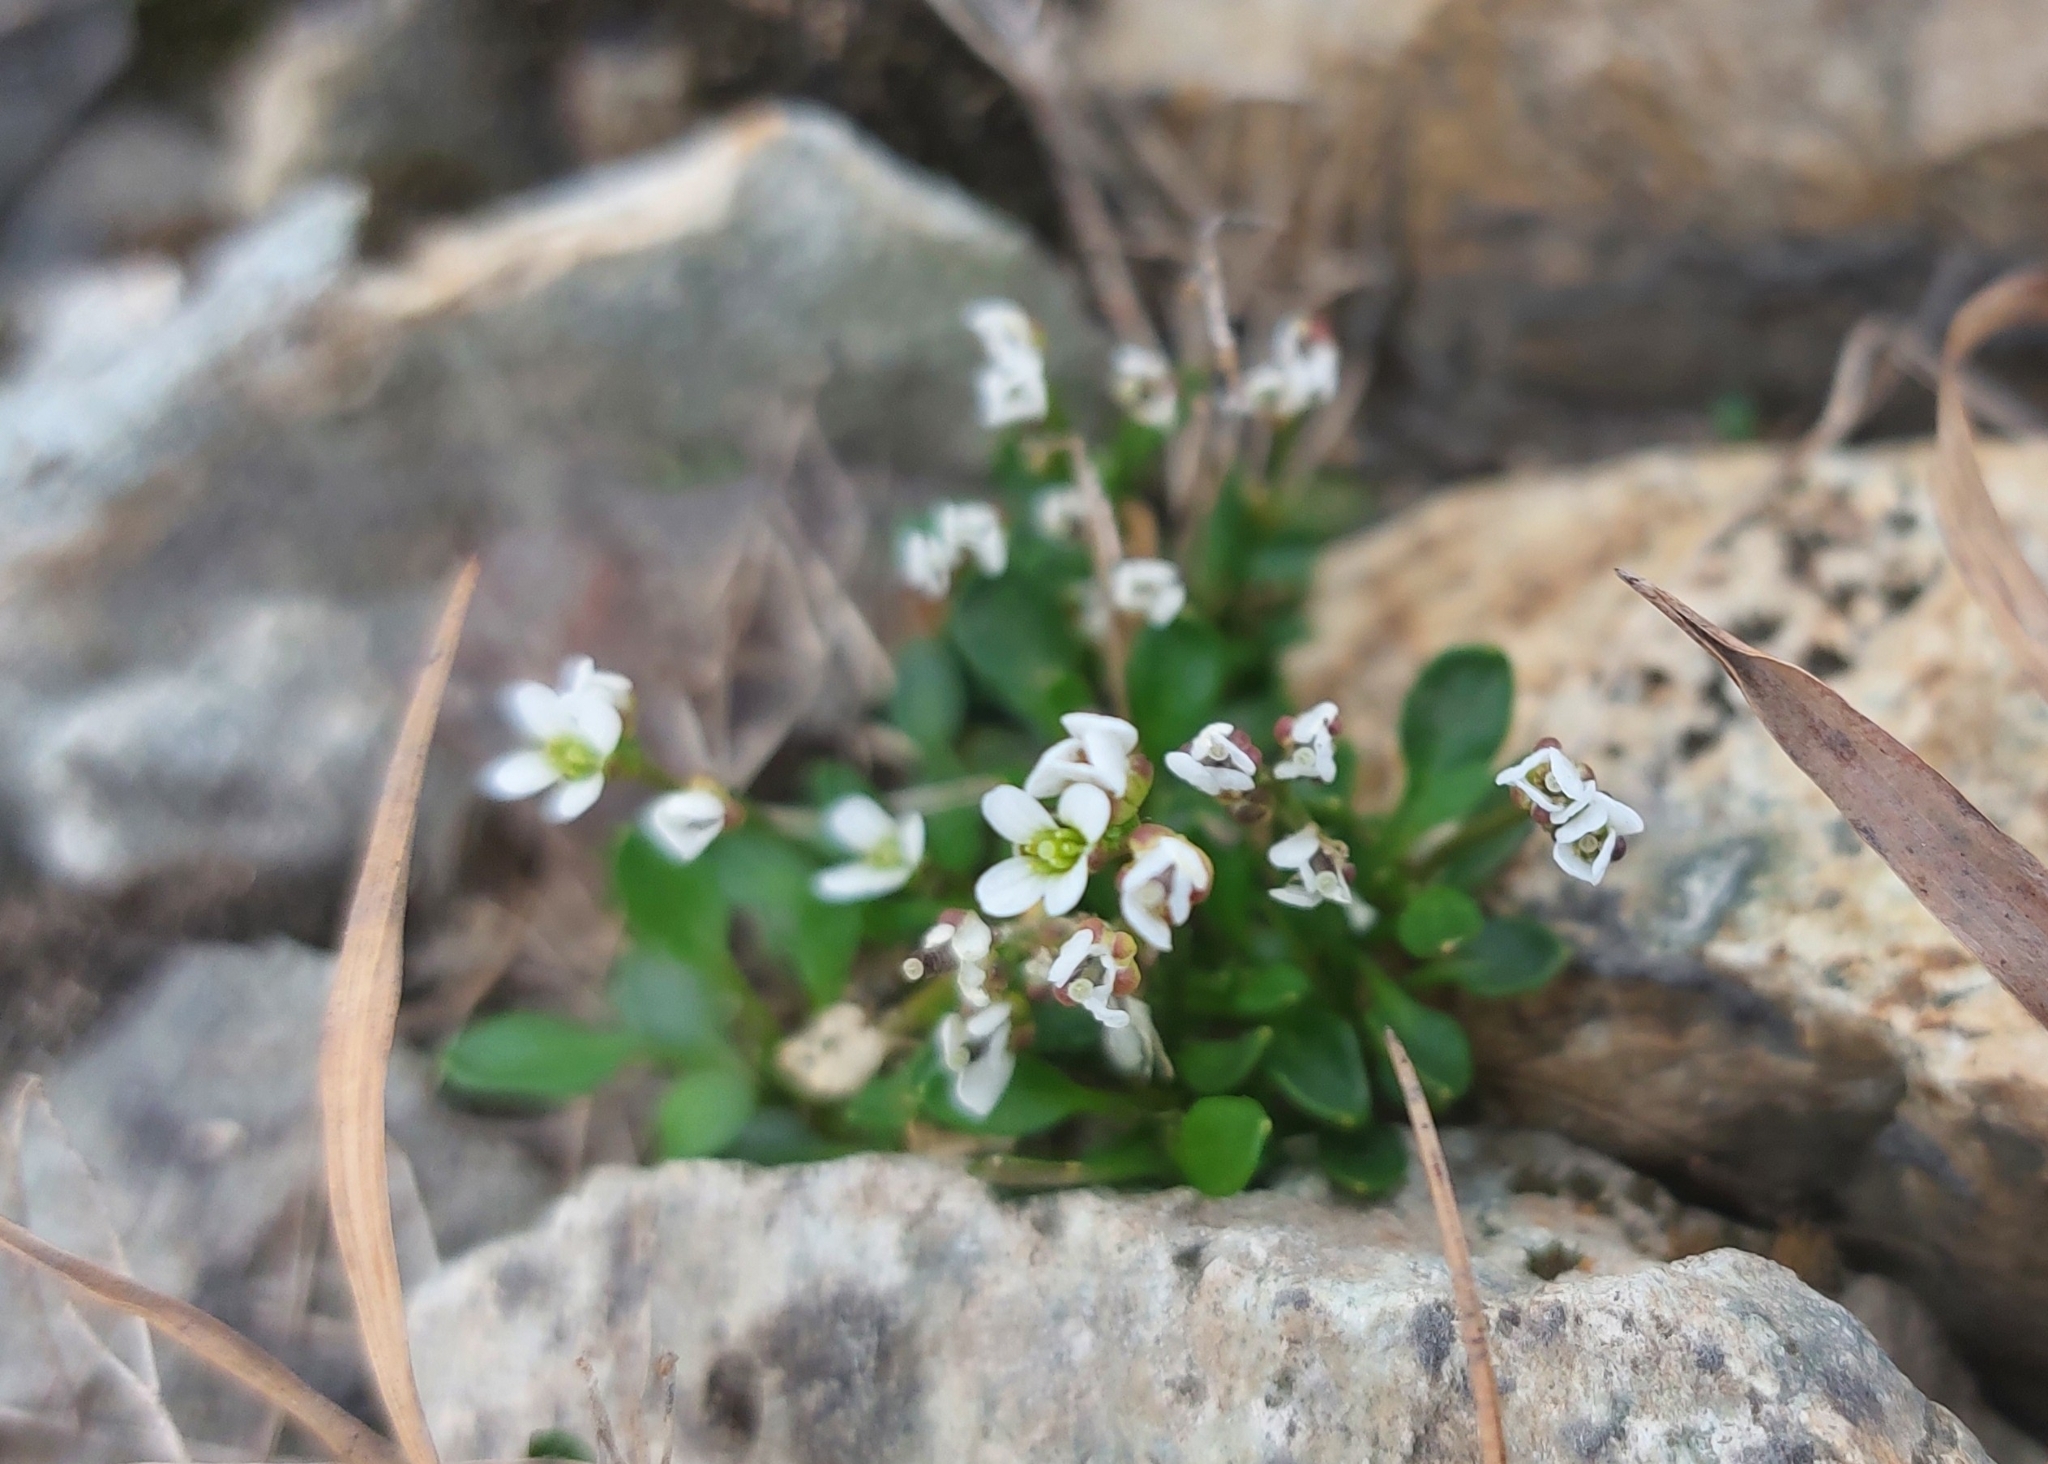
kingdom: Plantae
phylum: Tracheophyta
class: Magnoliopsida
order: Brassicales
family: Brassicaceae
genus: Cardamine
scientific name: Cardamine bellidifolia
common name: Alpine bittercress
